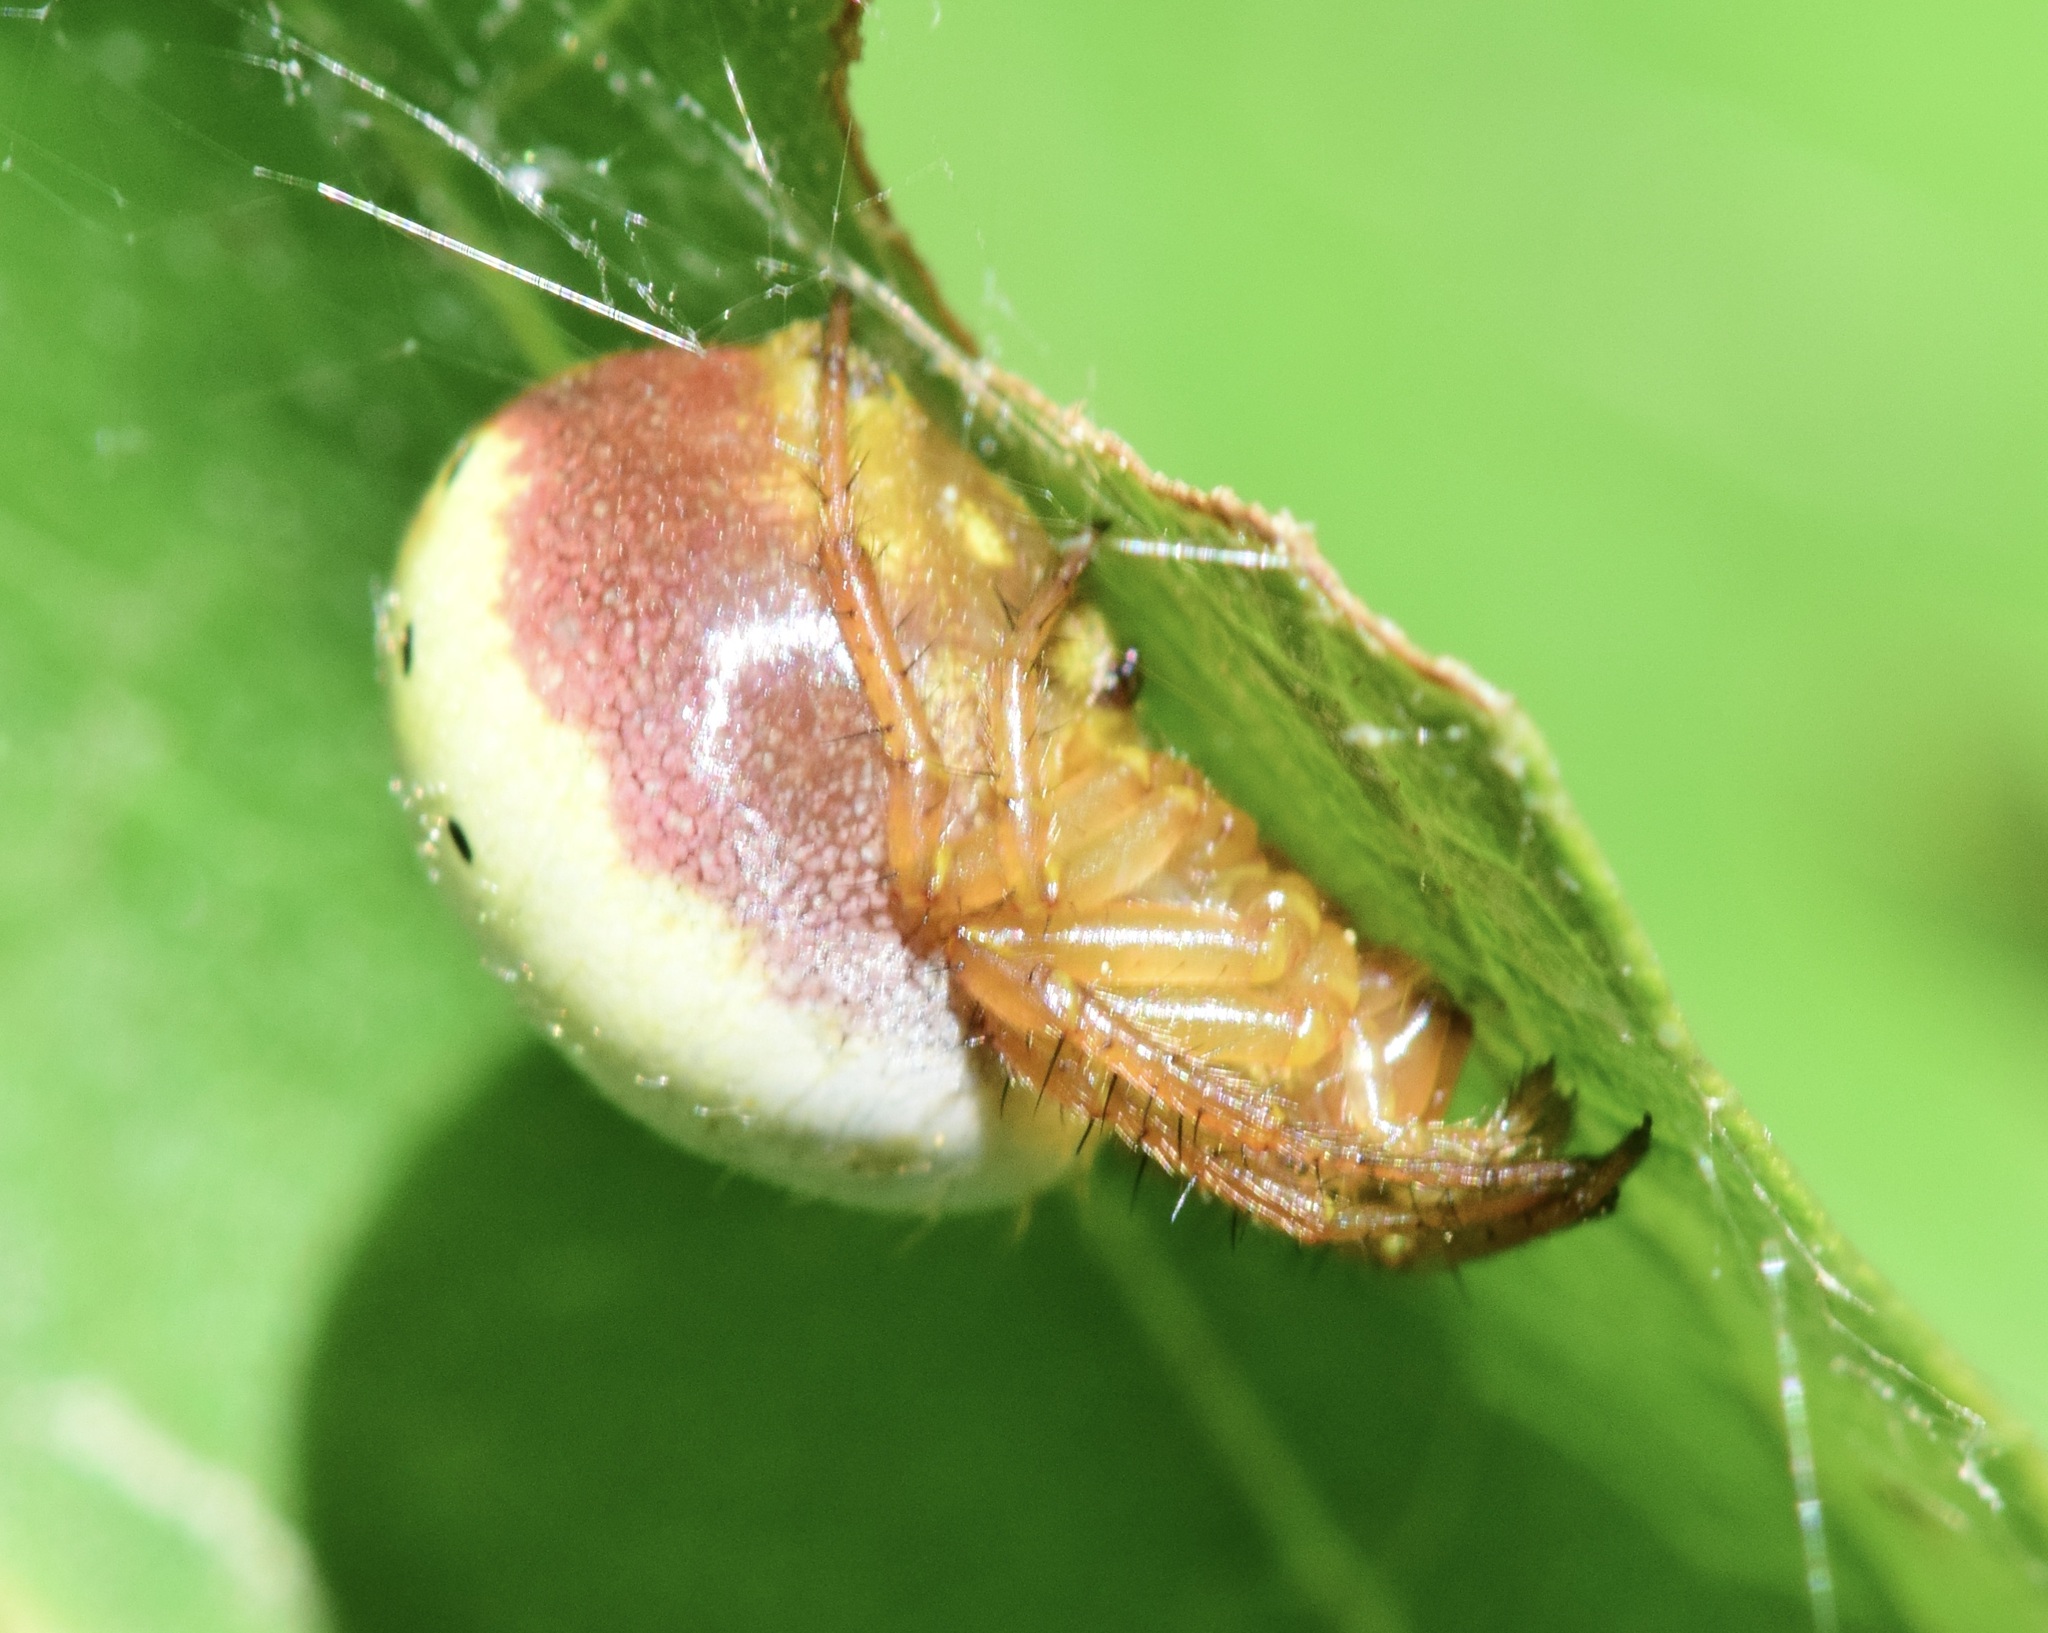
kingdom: Animalia
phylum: Arthropoda
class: Arachnida
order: Araneae
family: Araneidae
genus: Araniella
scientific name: Araniella displicata
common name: Sixspotted orb weaver
